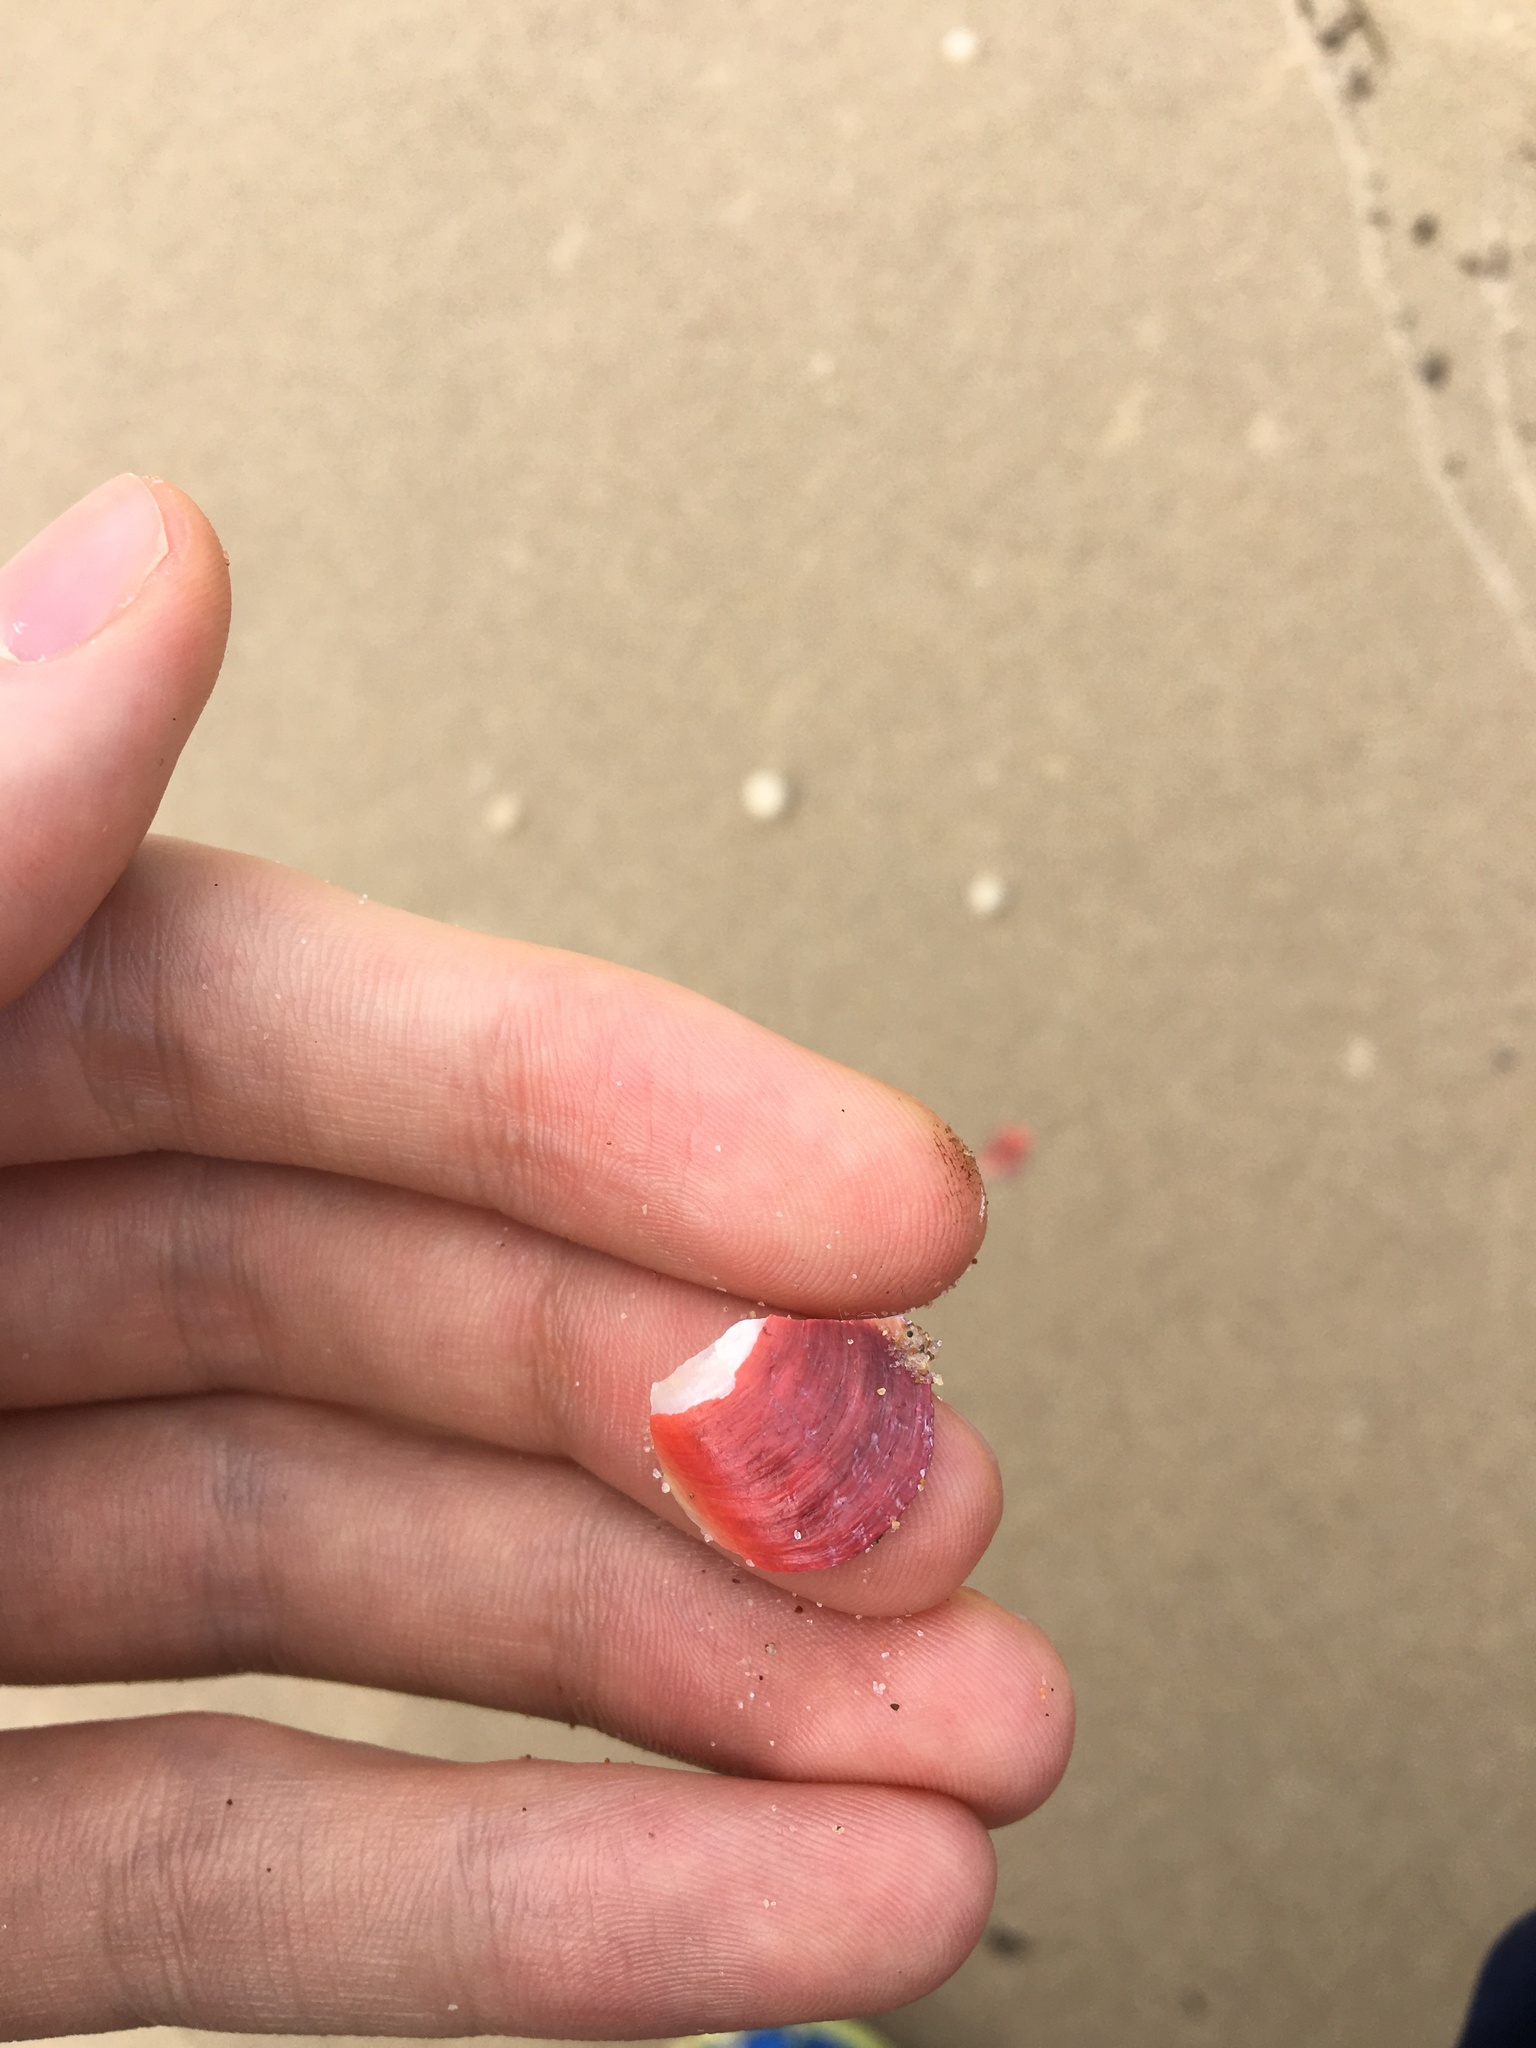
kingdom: Animalia
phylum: Mollusca
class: Bivalvia
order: Mytilida
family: Mytilidae
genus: Modiolus
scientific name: Modiolus areolatus
